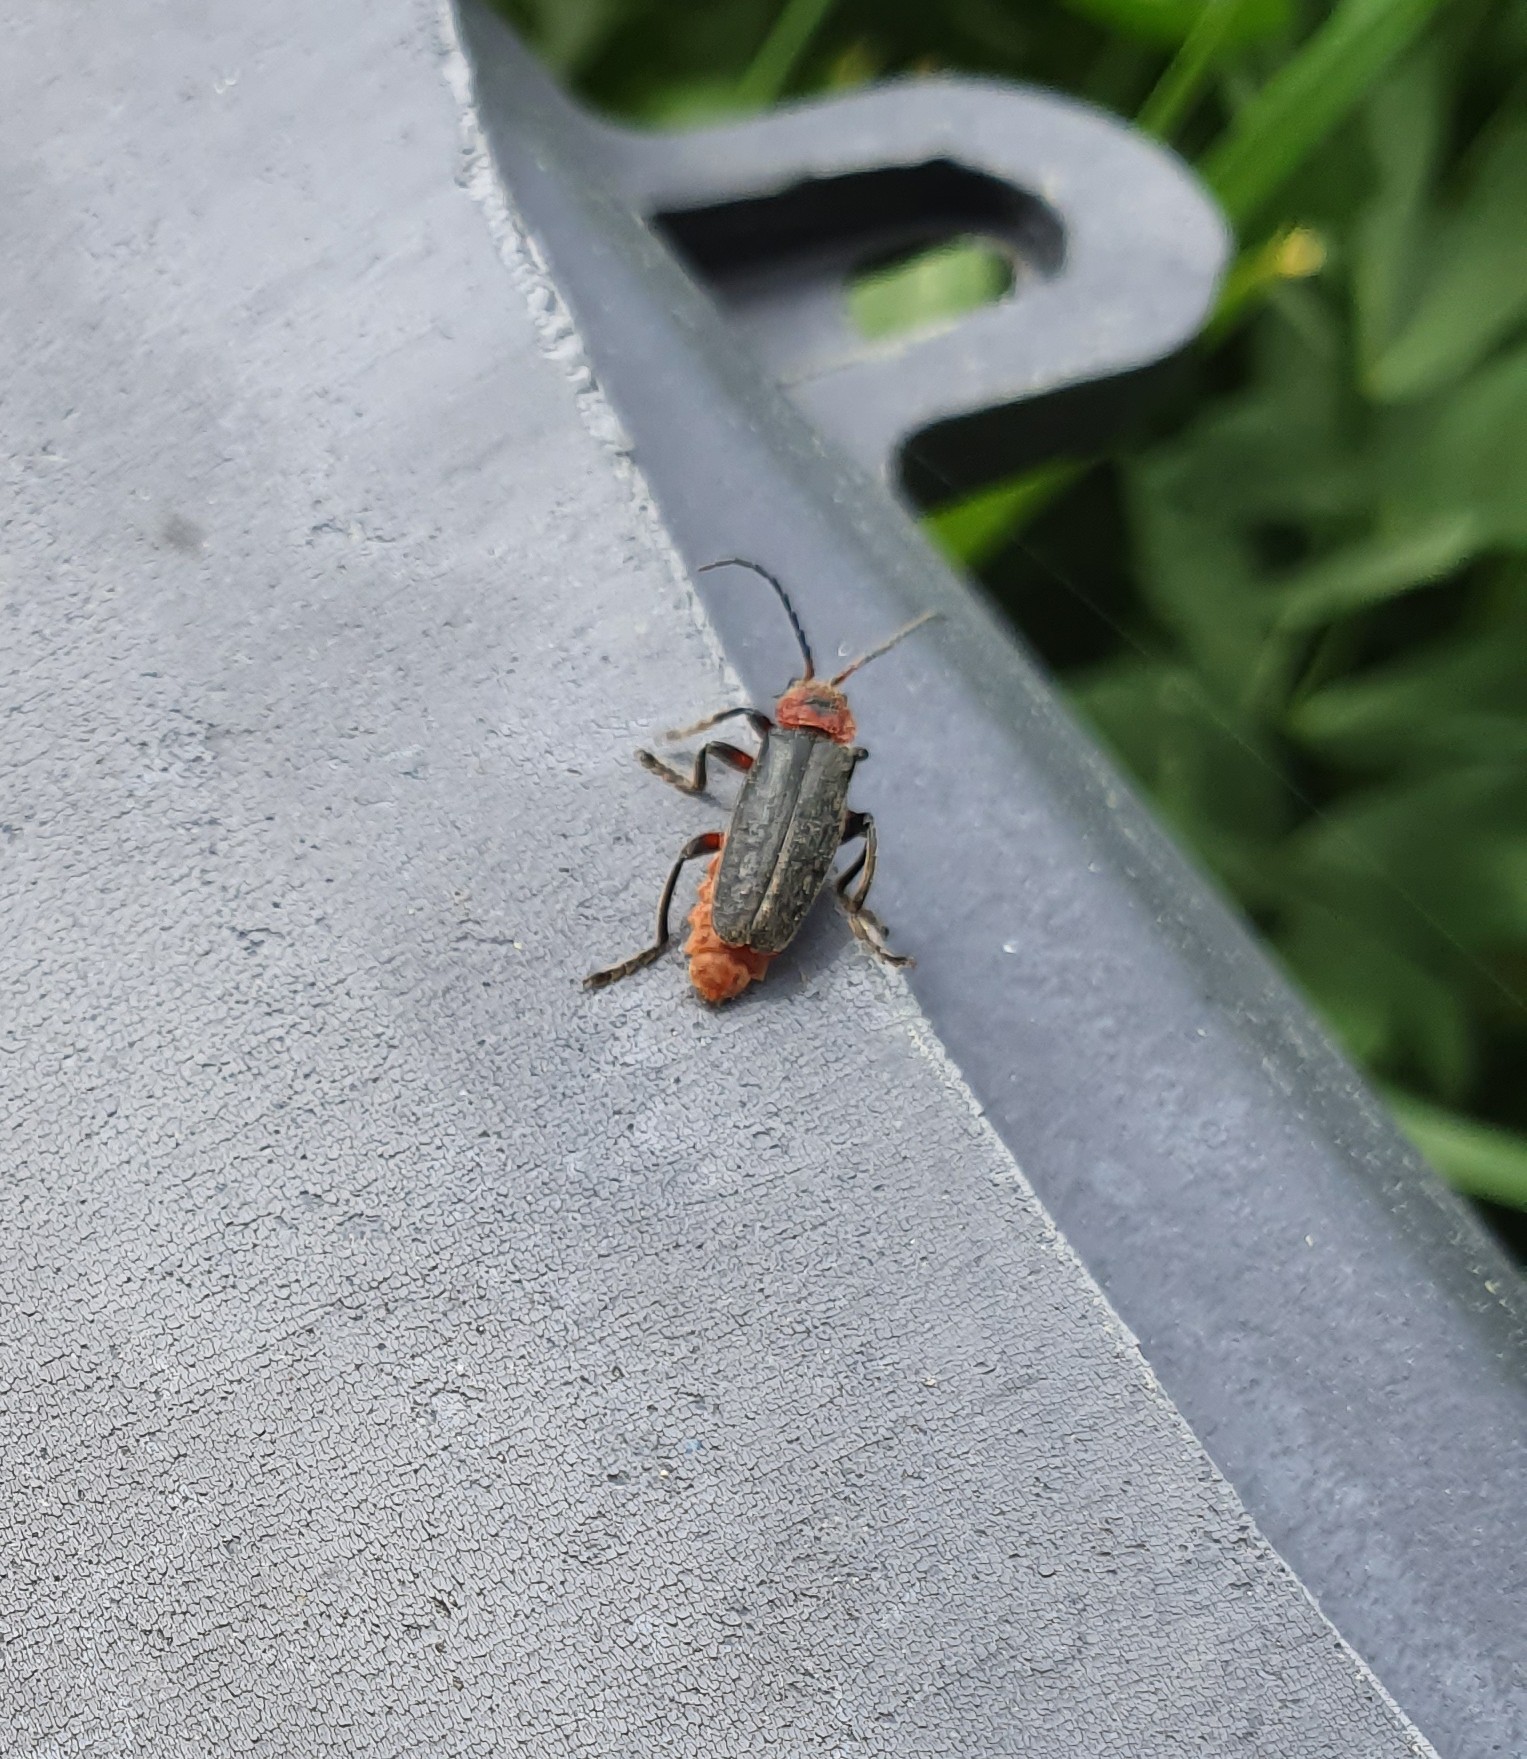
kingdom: Animalia
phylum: Arthropoda
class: Insecta
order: Coleoptera
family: Cantharidae
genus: Cantharis
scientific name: Cantharis rustica
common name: Soldier beetle
